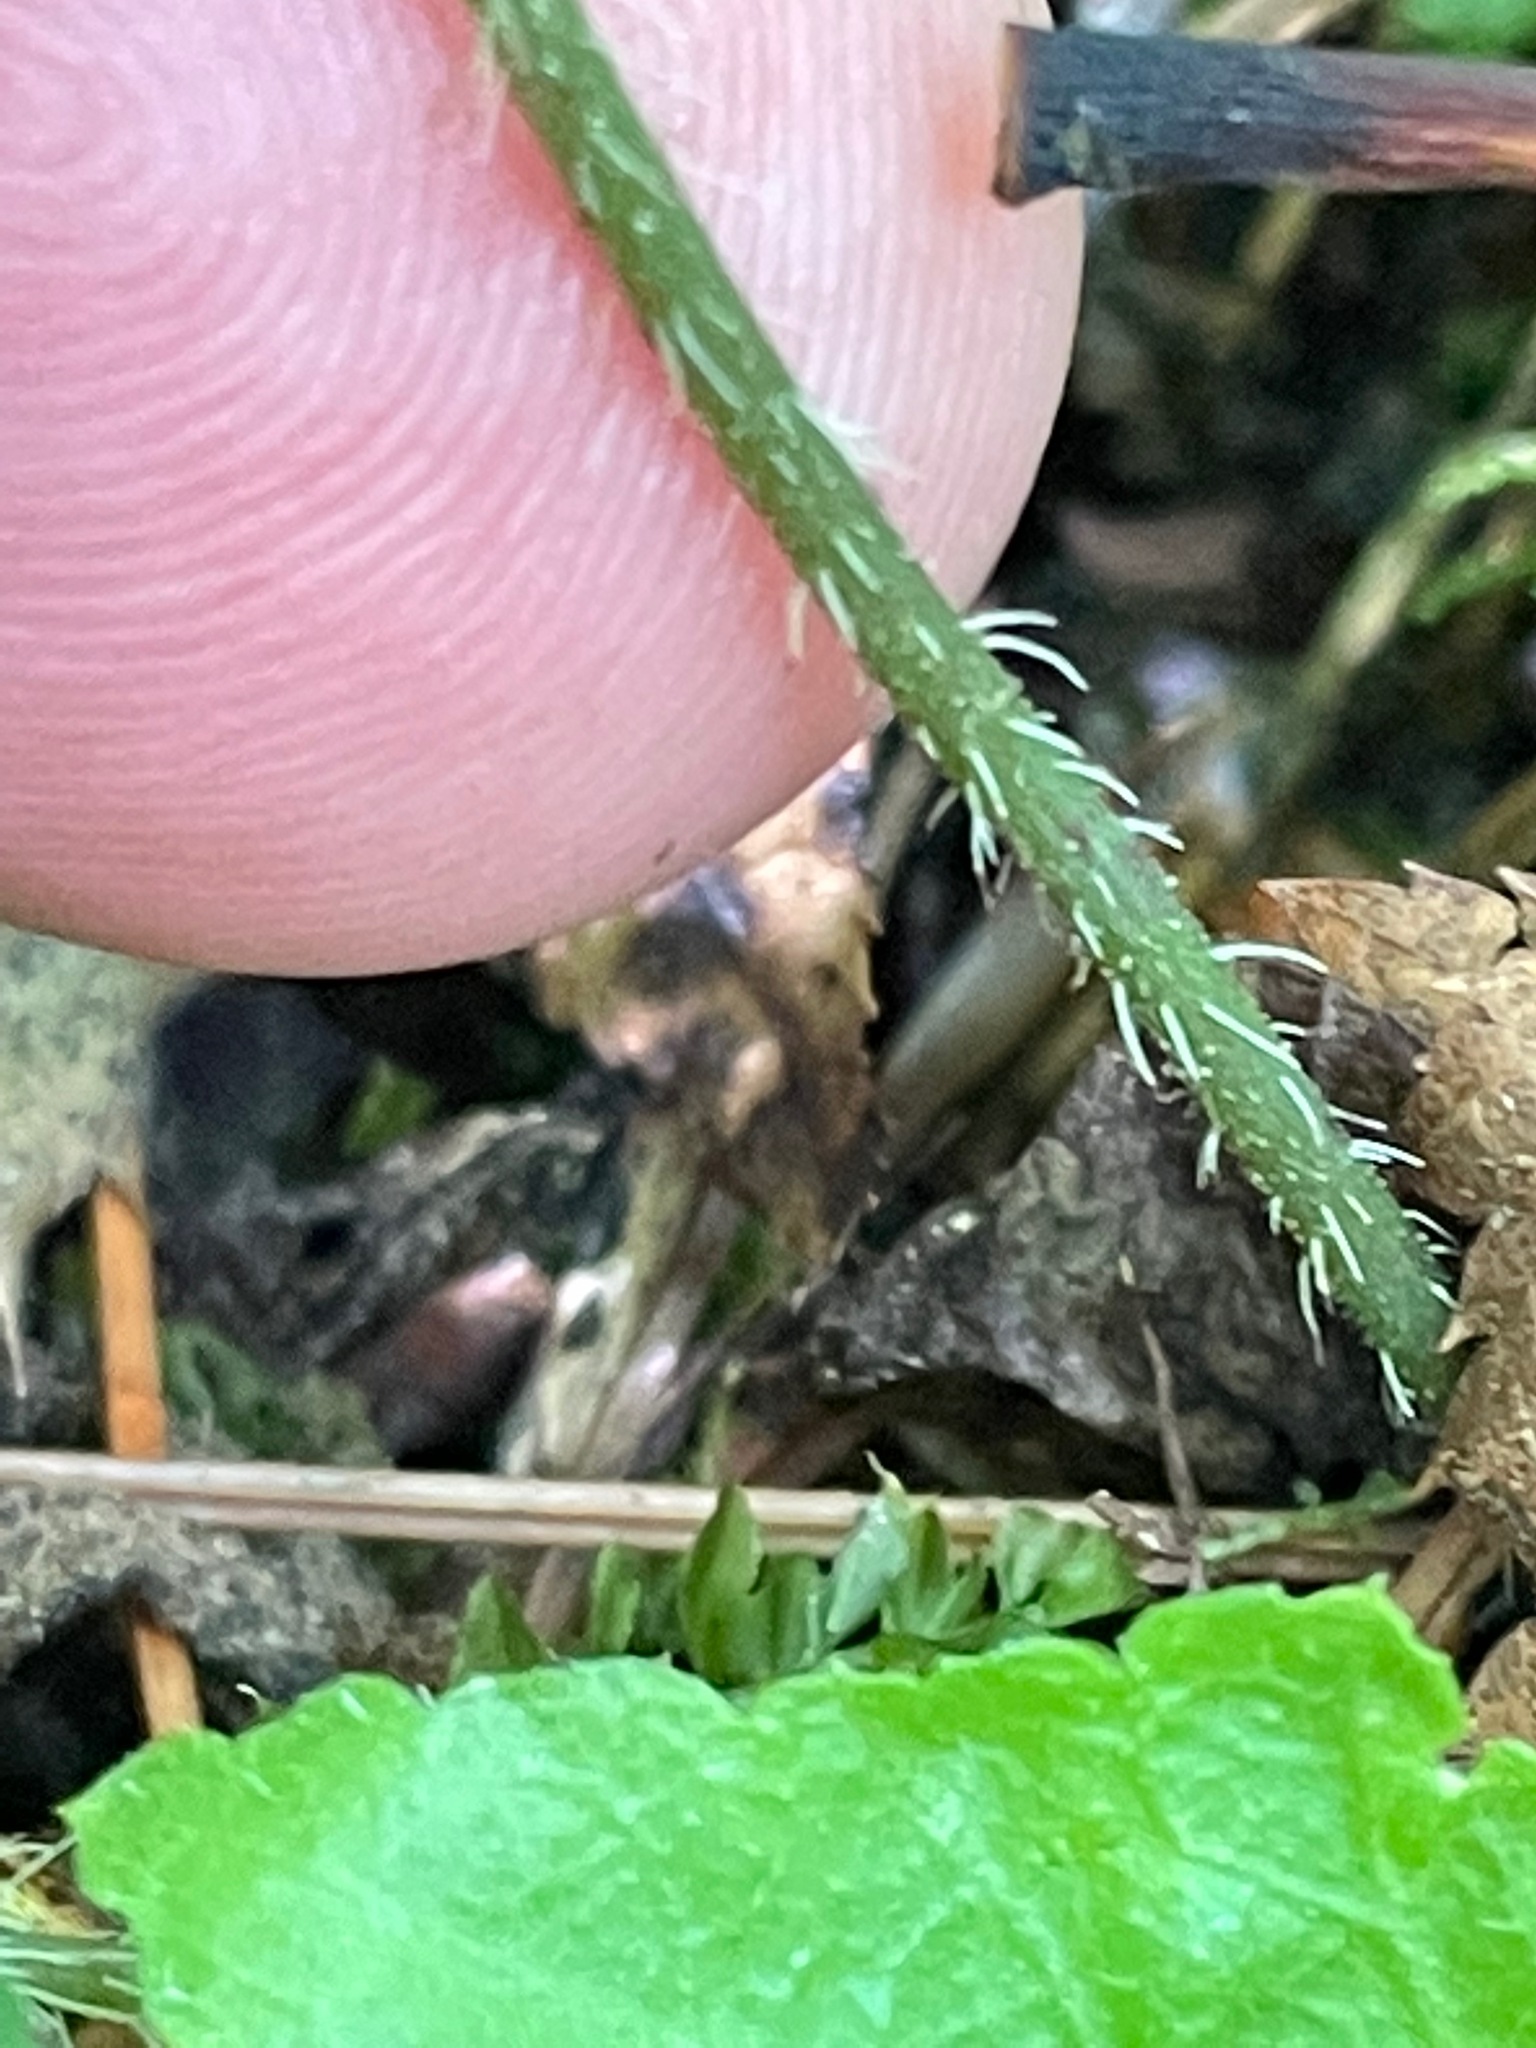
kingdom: Plantae
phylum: Tracheophyta
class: Magnoliopsida
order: Saxifragales
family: Saxifragaceae
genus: Mitella
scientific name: Mitella diphylla
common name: Coolwort
